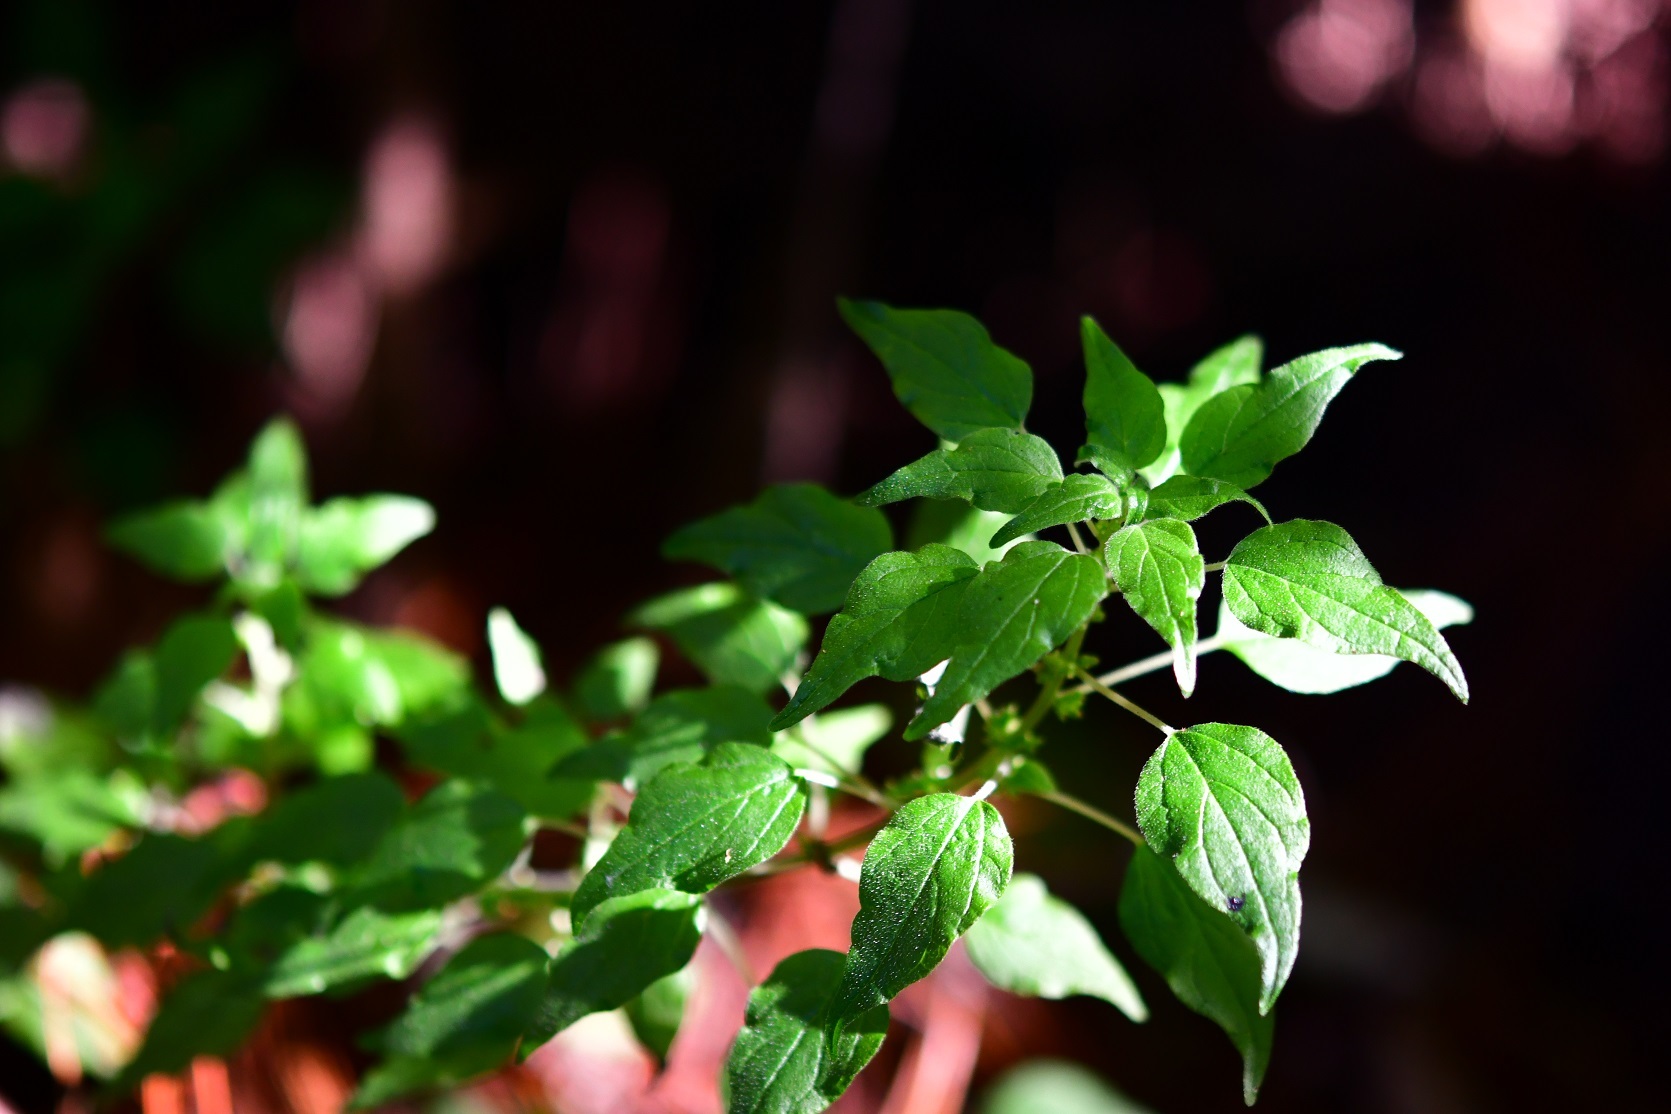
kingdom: Plantae
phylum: Tracheophyta
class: Magnoliopsida
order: Rosales
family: Urticaceae
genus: Parietaria
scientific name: Parietaria debilis
